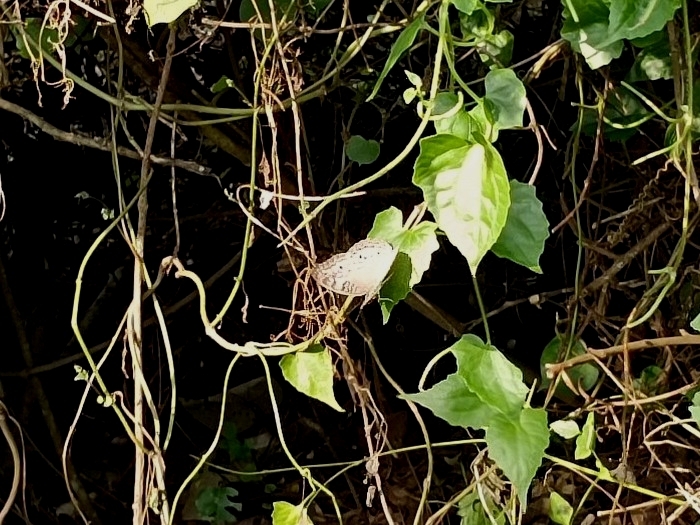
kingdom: Animalia
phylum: Arthropoda
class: Insecta
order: Lepidoptera
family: Nymphalidae
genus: Junonia
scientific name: Junonia atlites
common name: Grey pansy
